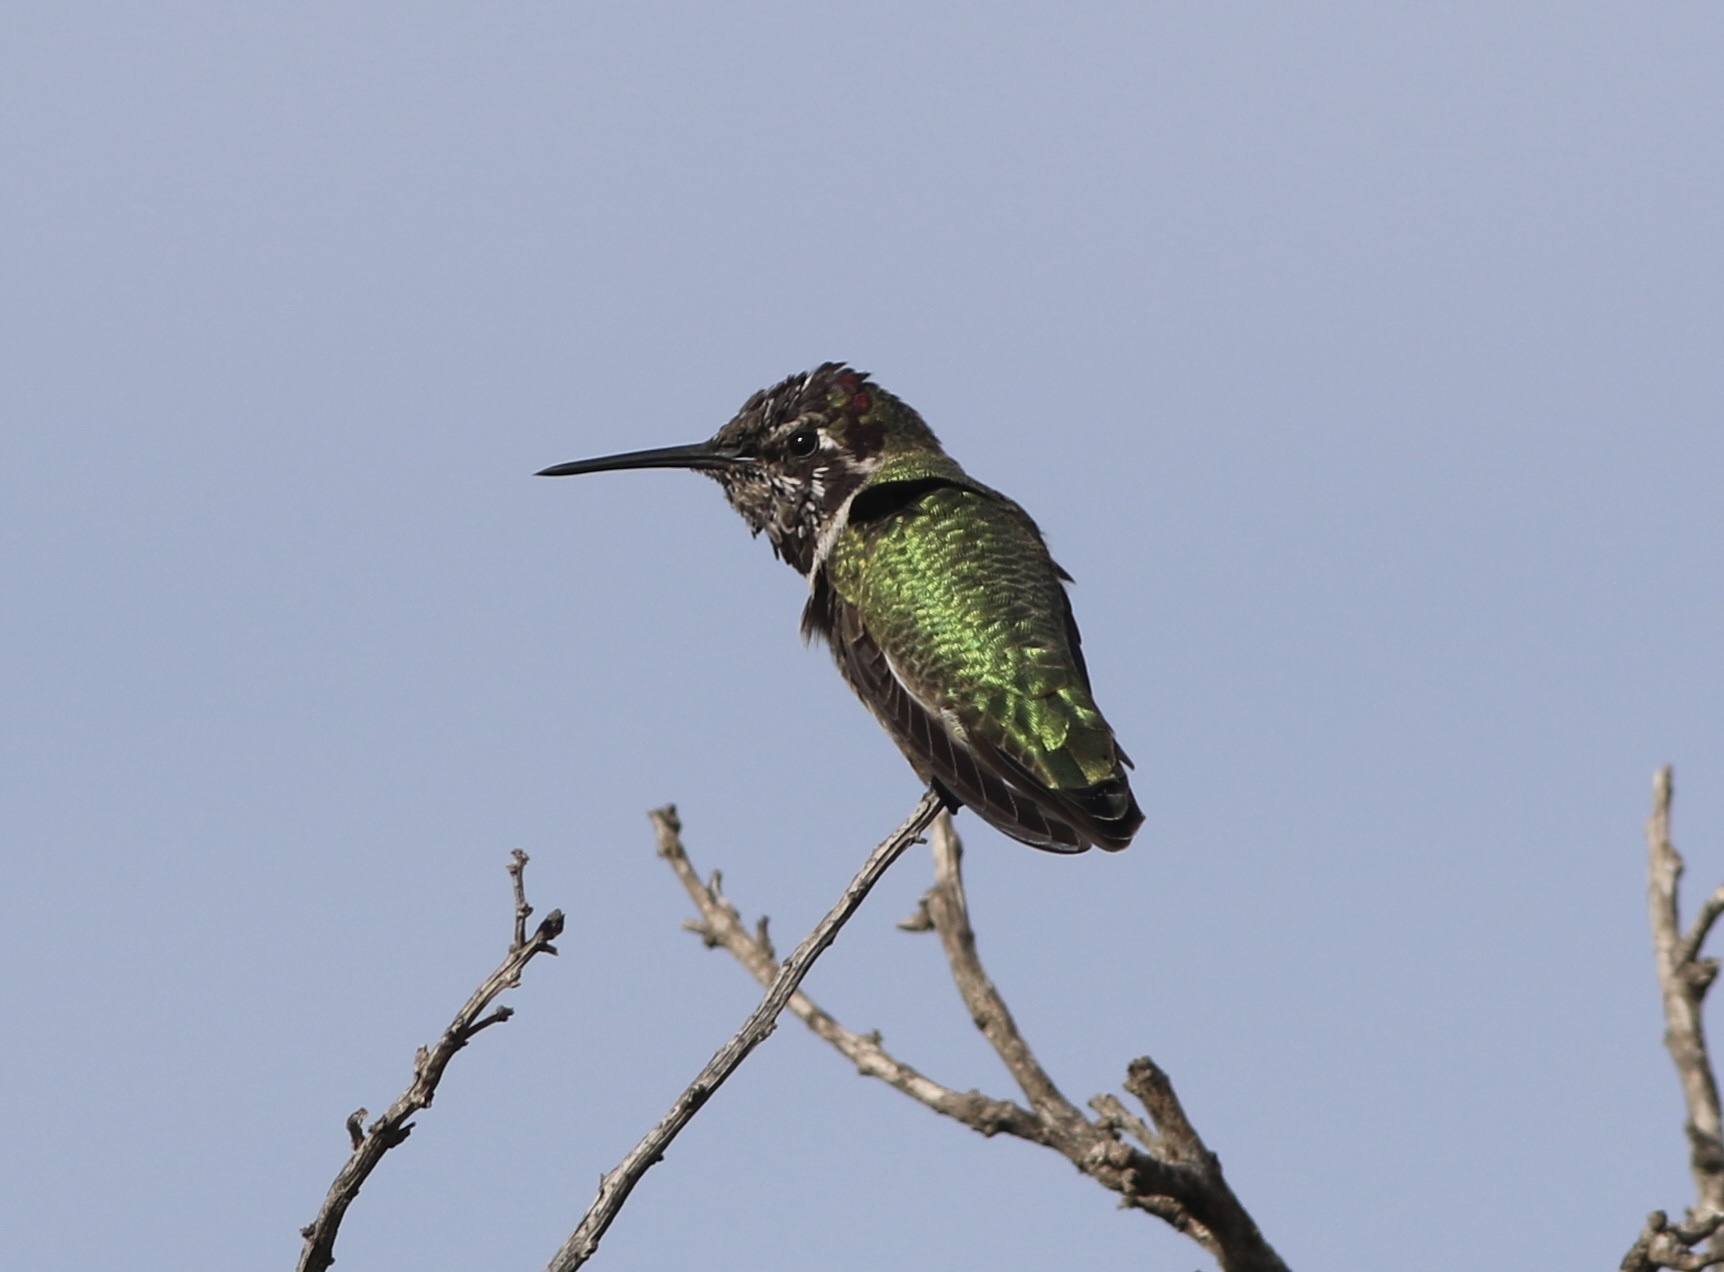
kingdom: Animalia
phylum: Chordata
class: Aves
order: Apodiformes
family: Trochilidae
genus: Calypte
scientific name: Calypte anna
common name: Anna's hummingbird
